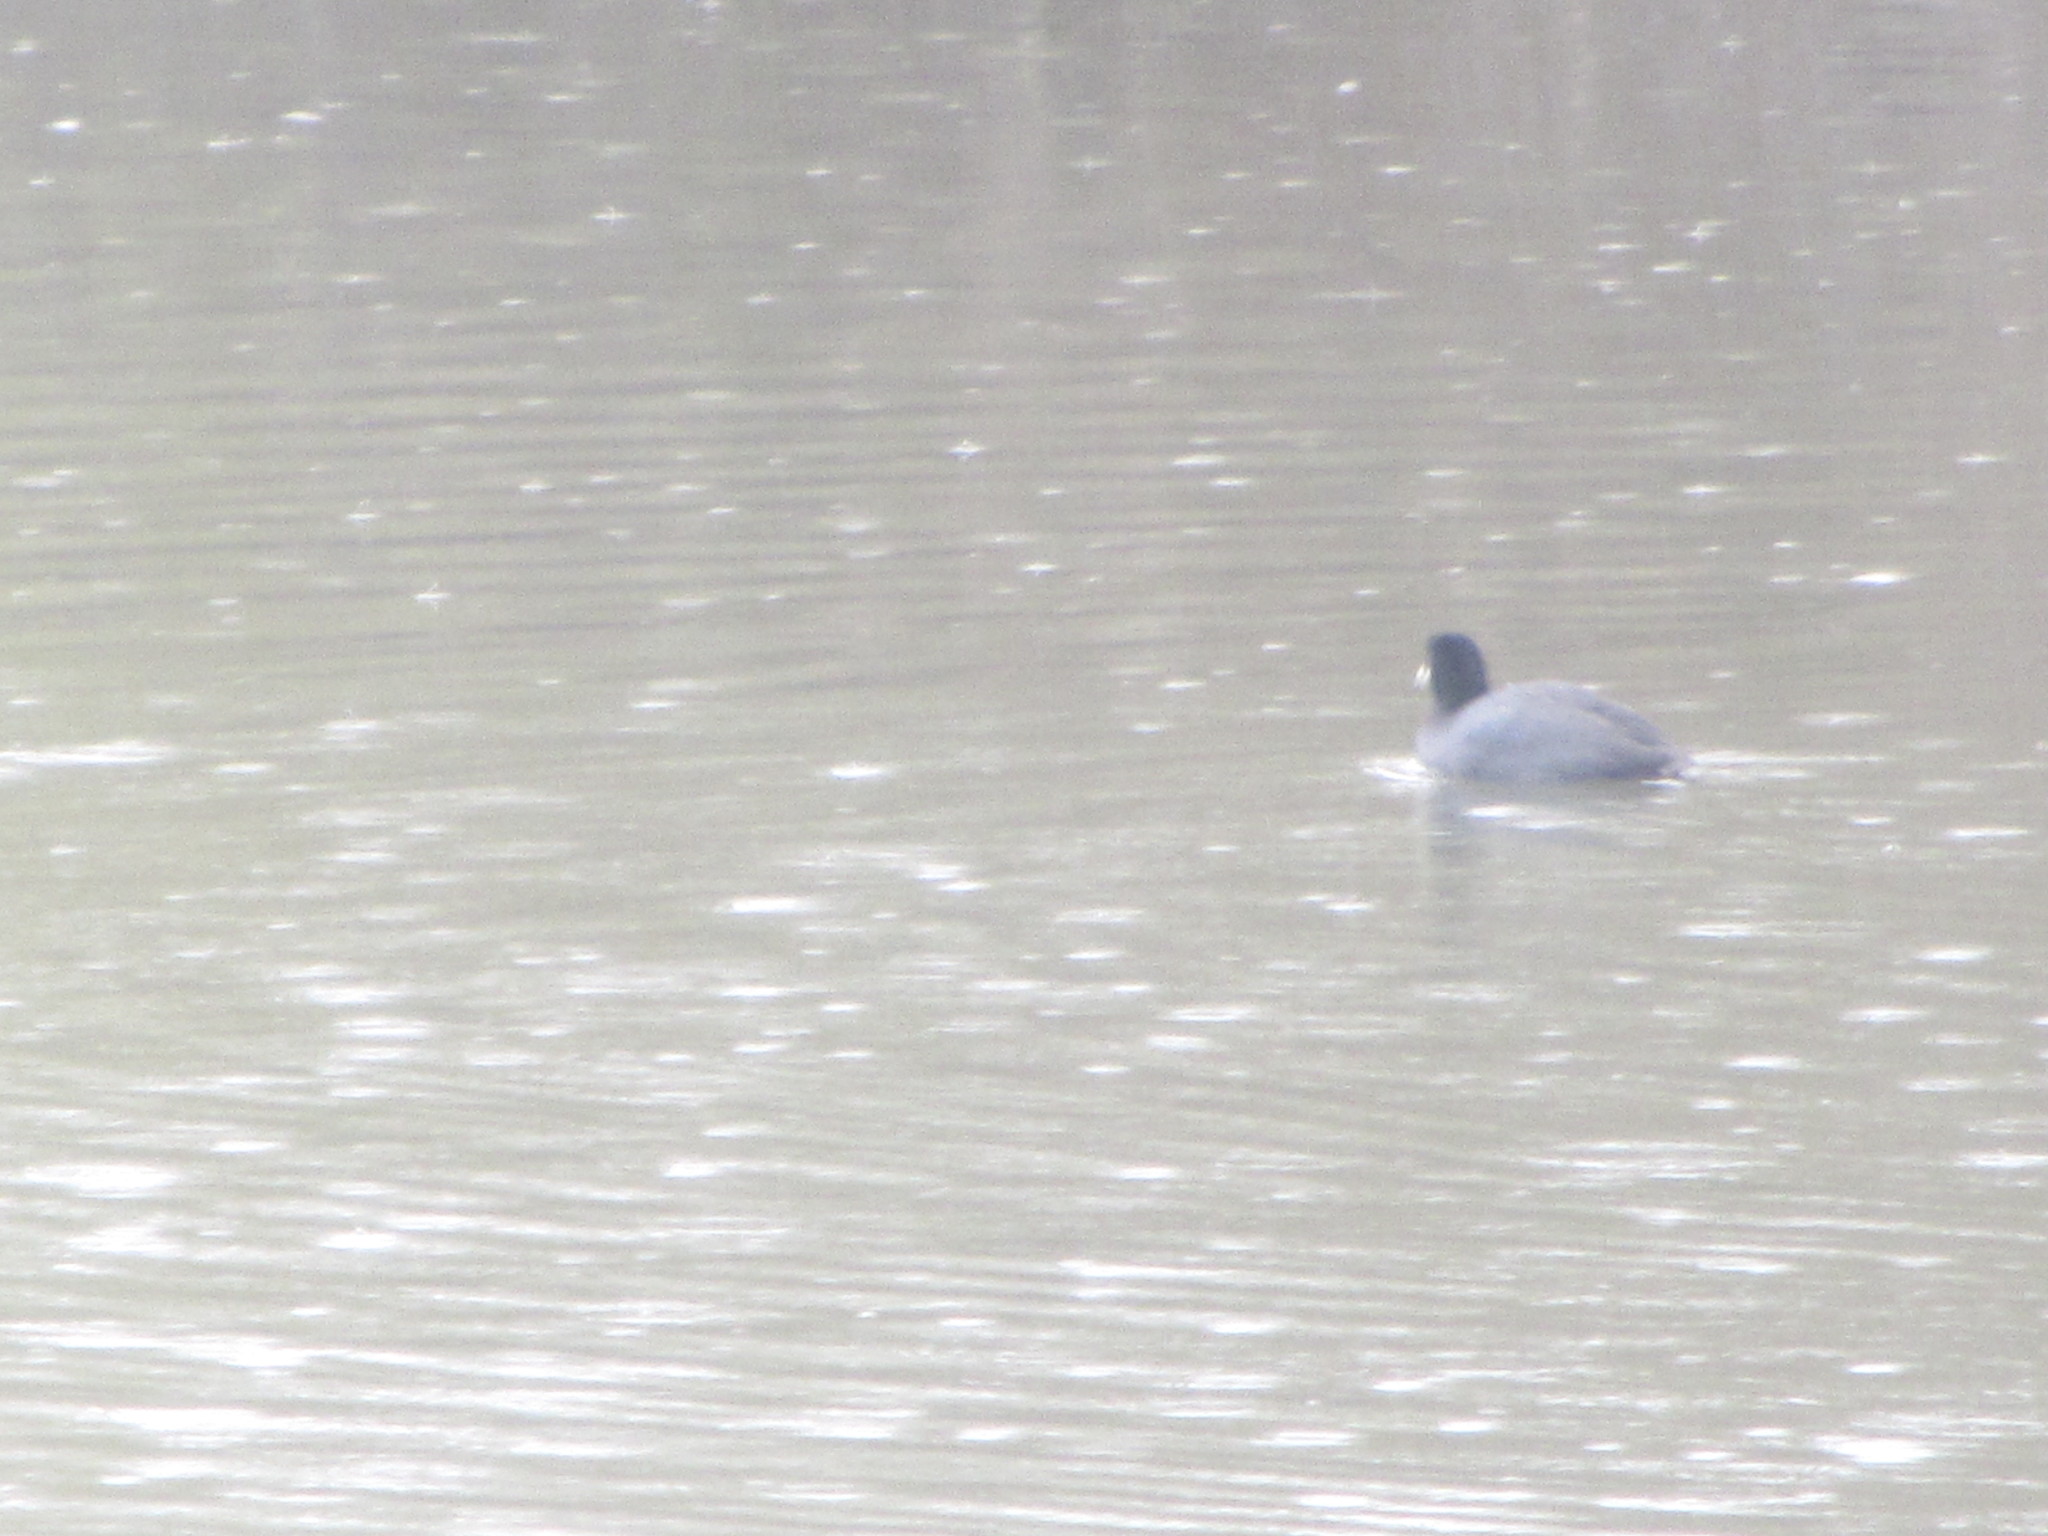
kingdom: Animalia
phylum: Chordata
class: Aves
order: Gruiformes
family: Rallidae
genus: Fulica
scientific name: Fulica americana
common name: American coot
